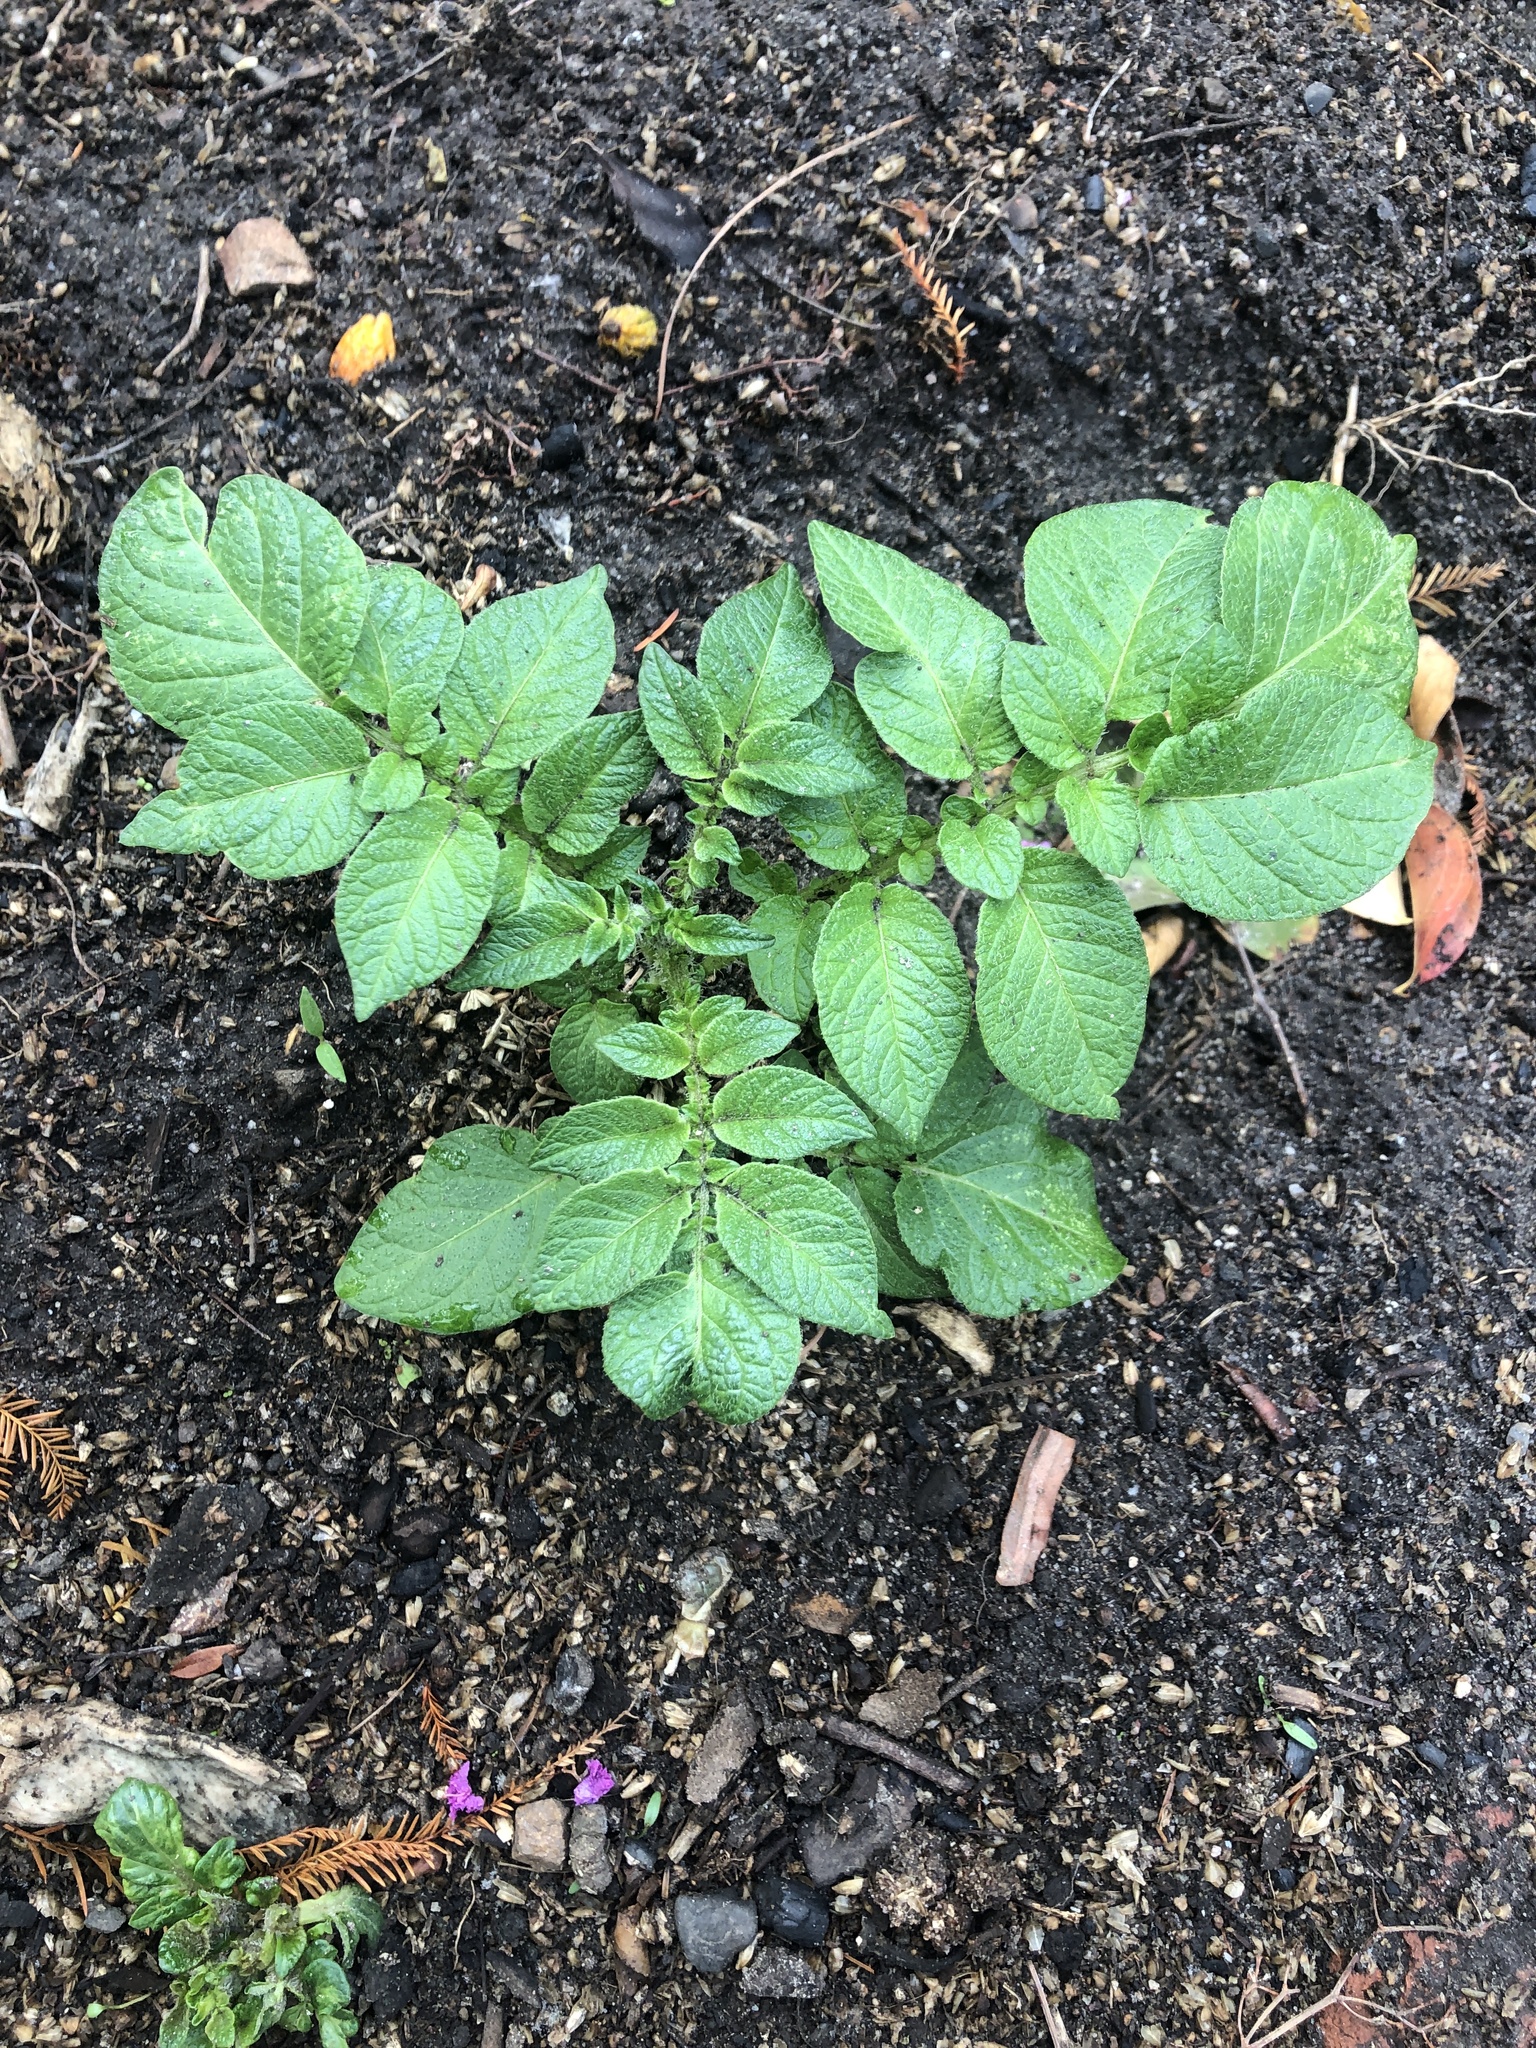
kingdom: Plantae
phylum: Tracheophyta
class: Magnoliopsida
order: Solanales
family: Solanaceae
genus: Solanum
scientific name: Solanum tuberosum
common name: Potato
